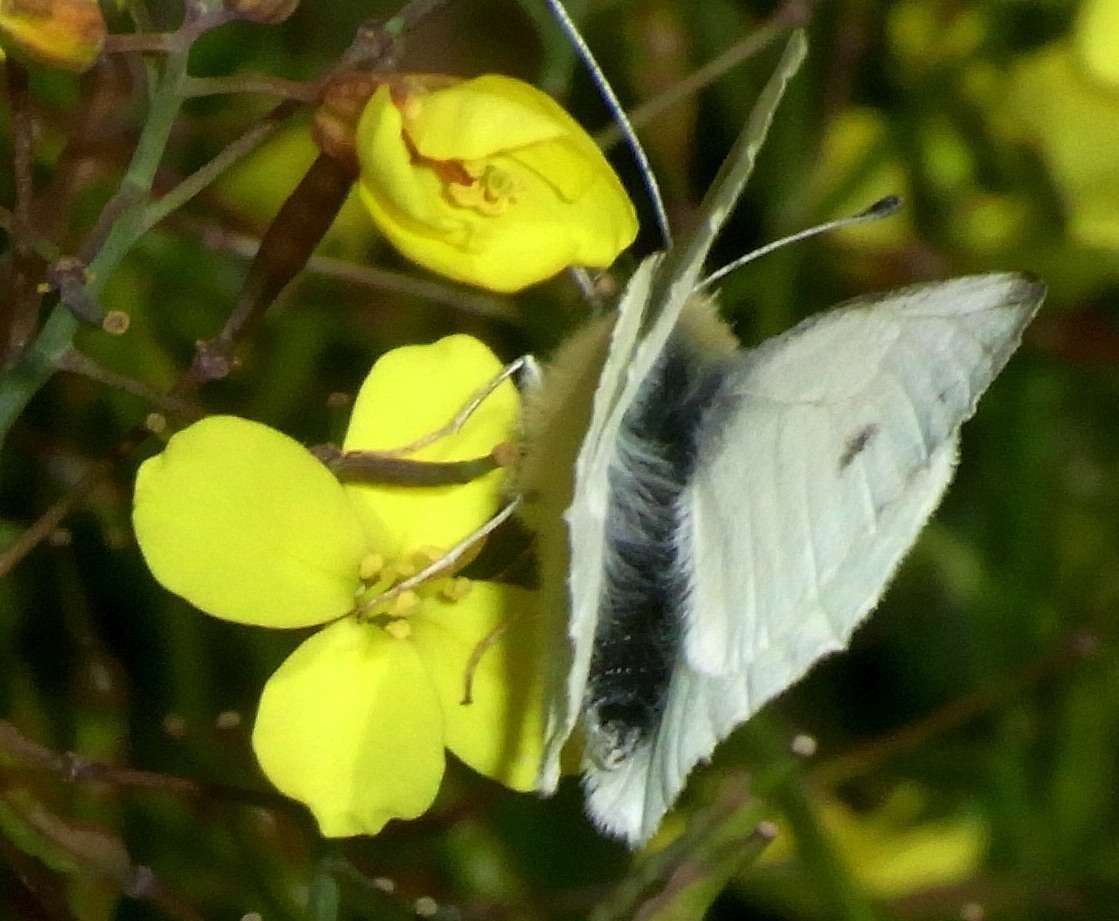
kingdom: Animalia
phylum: Arthropoda
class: Insecta
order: Lepidoptera
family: Pieridae
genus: Pieris
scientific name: Pieris rapae
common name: Small white
